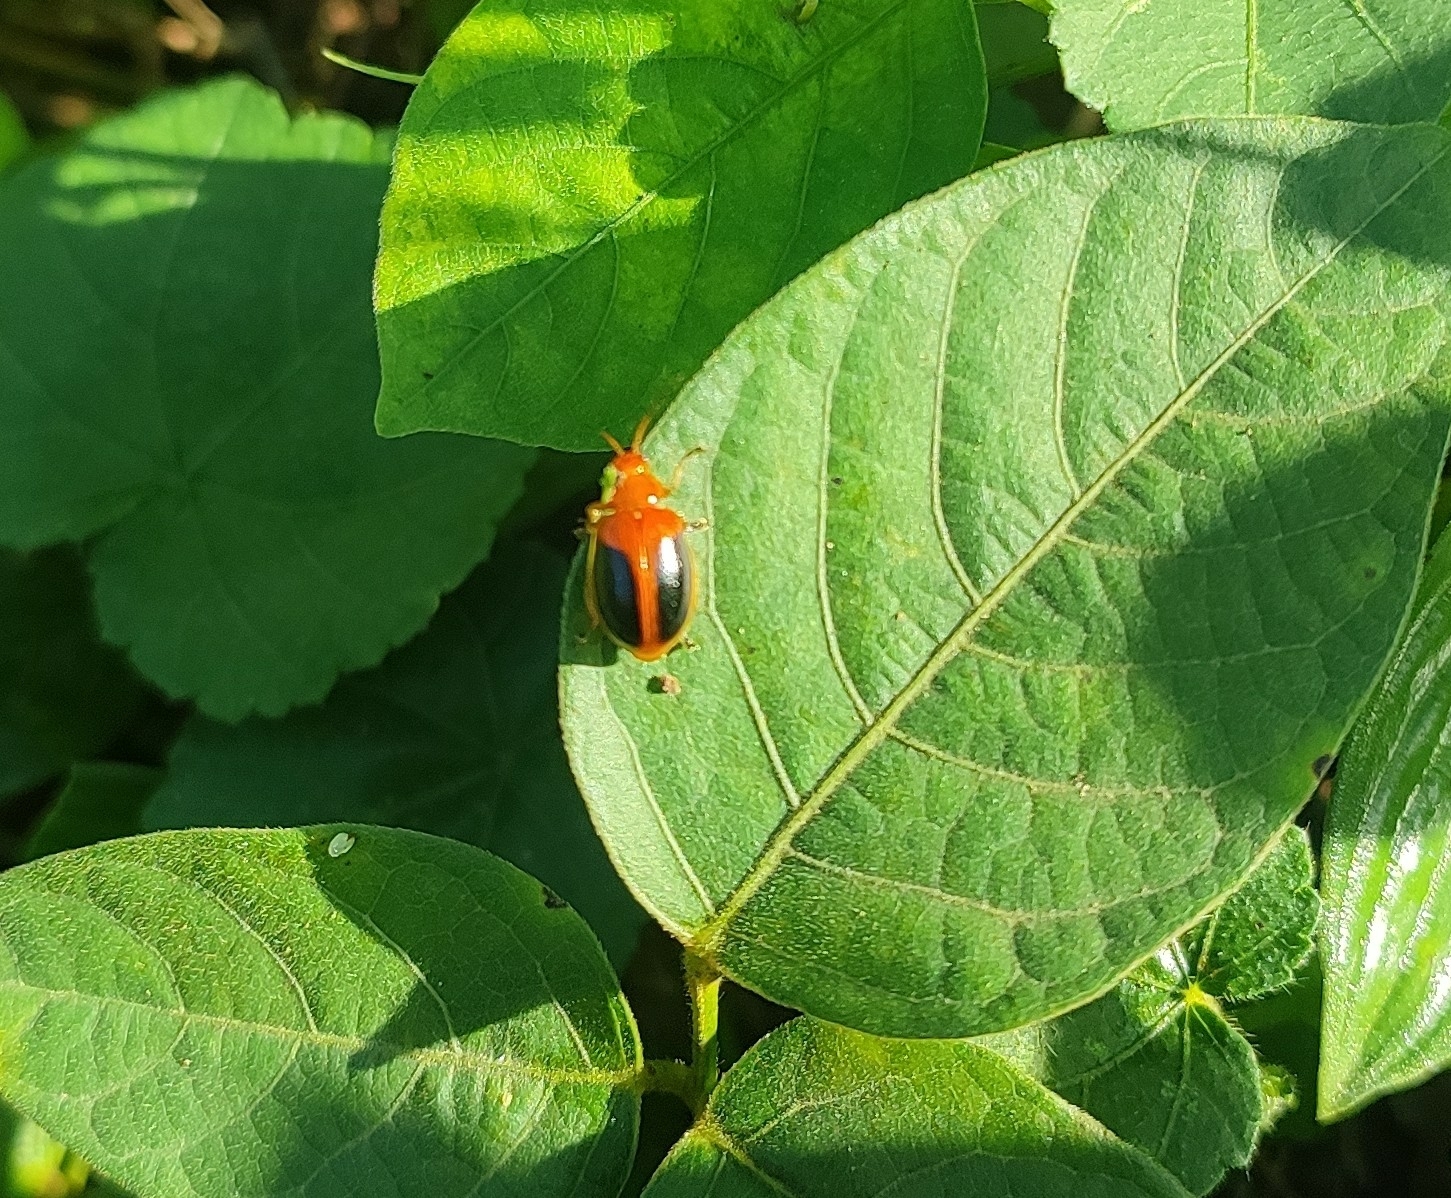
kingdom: Animalia
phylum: Arthropoda
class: Insecta
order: Coleoptera
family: Chrysomelidae
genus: Oides
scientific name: Oides affinis
